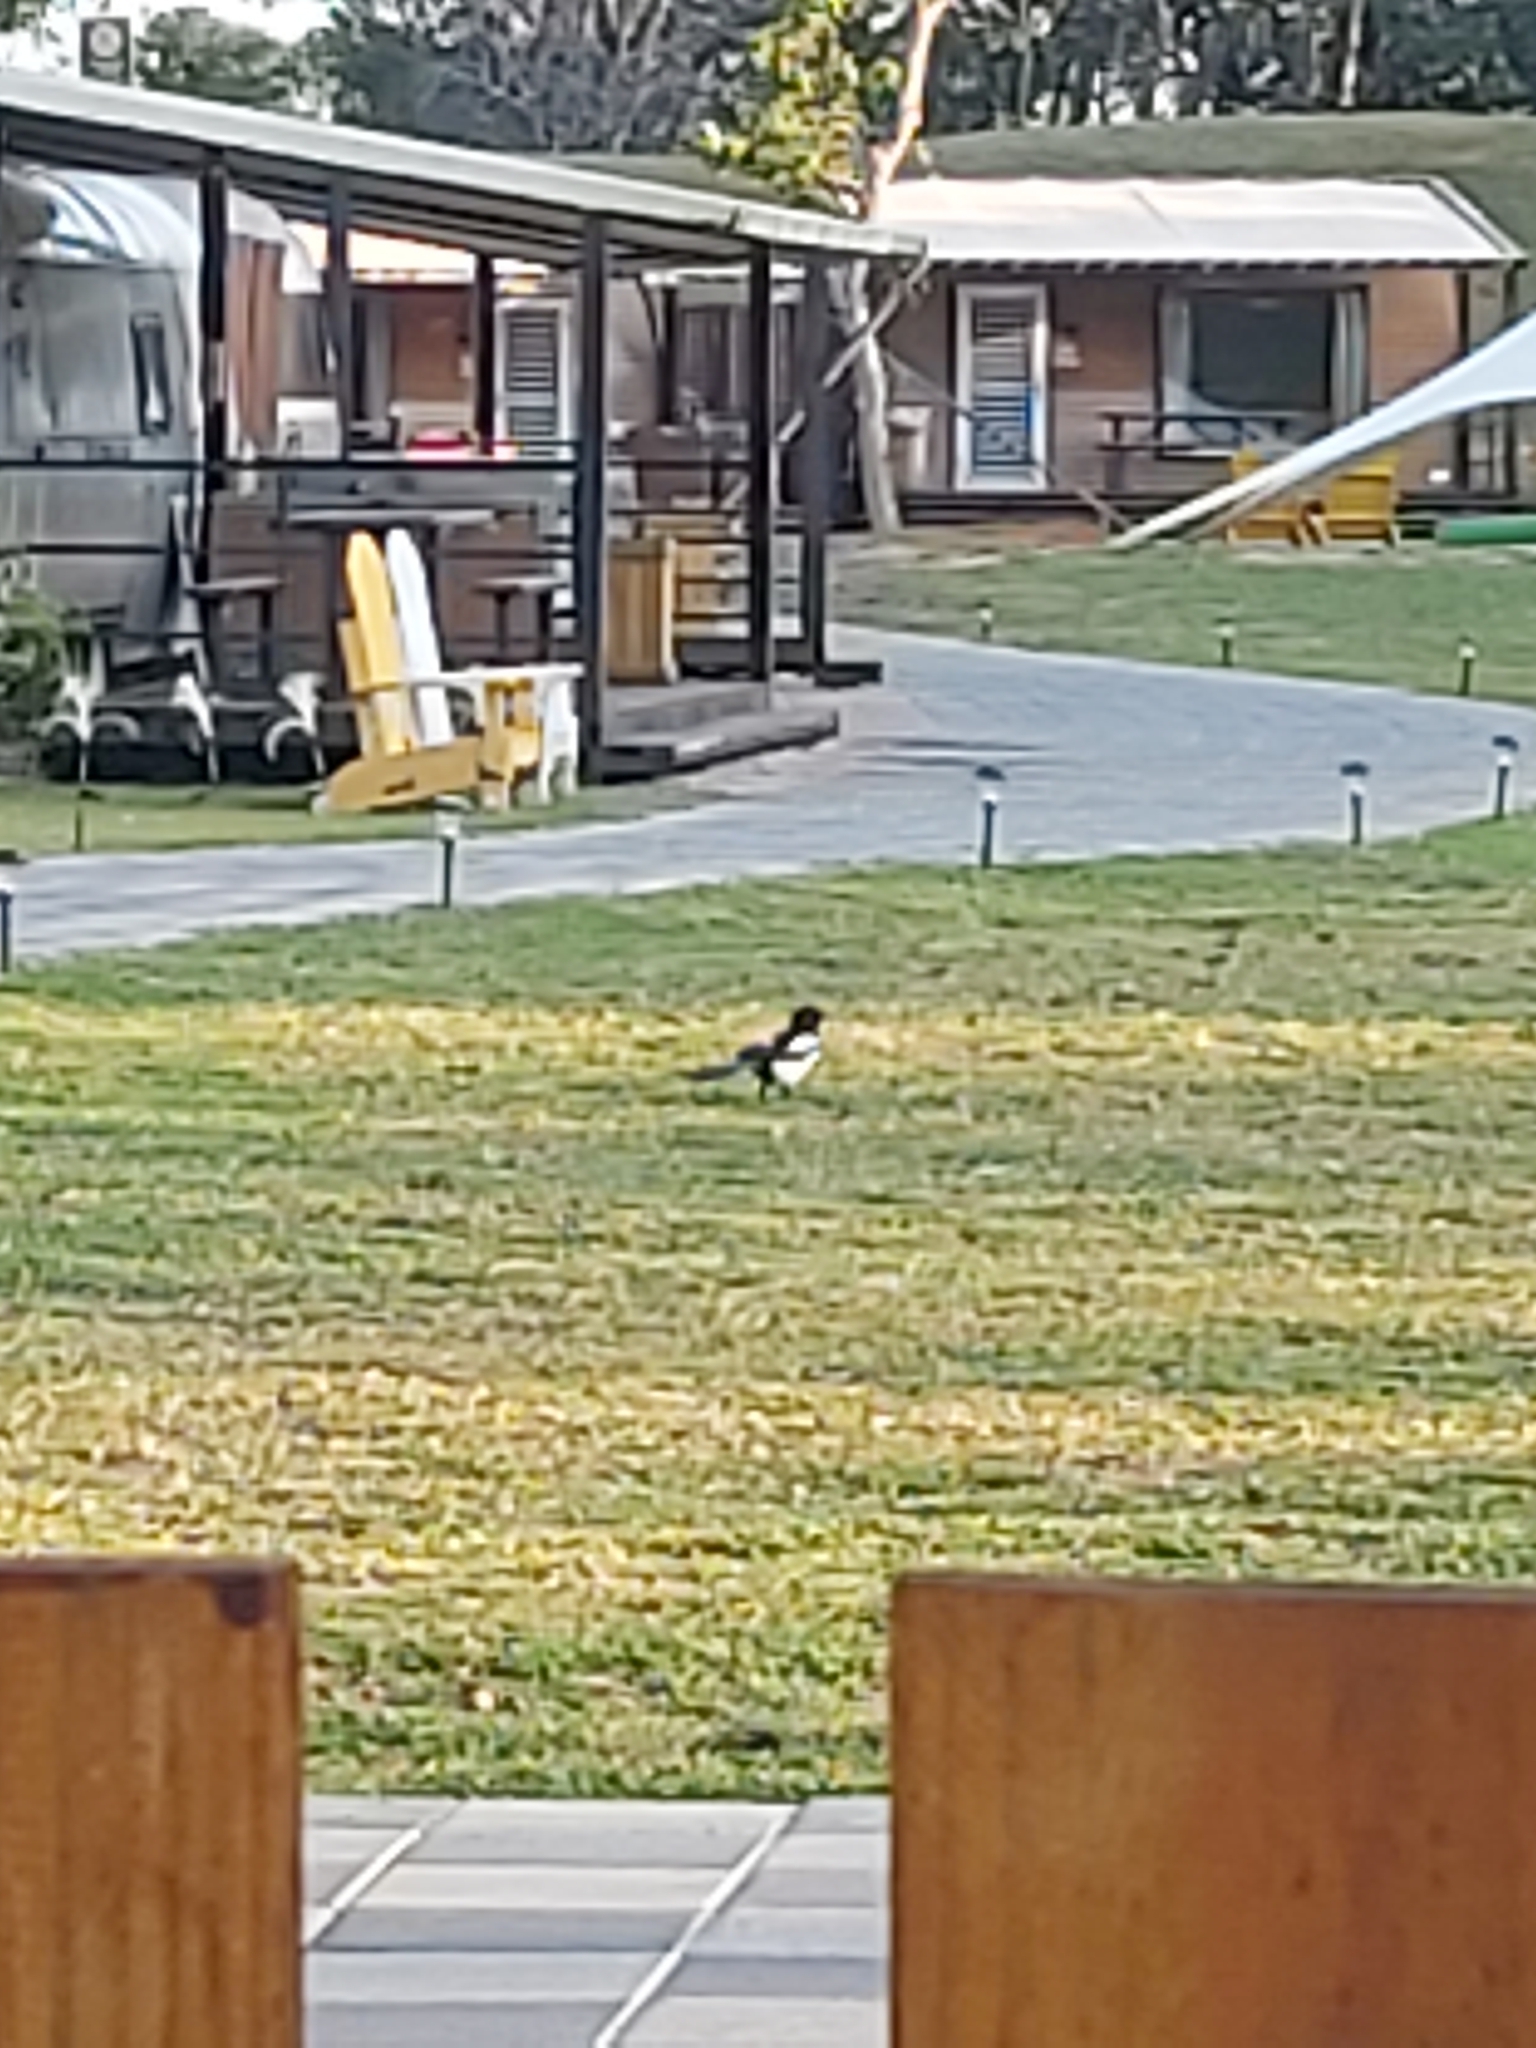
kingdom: Animalia
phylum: Chordata
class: Aves
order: Passeriformes
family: Corvidae
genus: Pica
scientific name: Pica serica
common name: Oriental magpie
